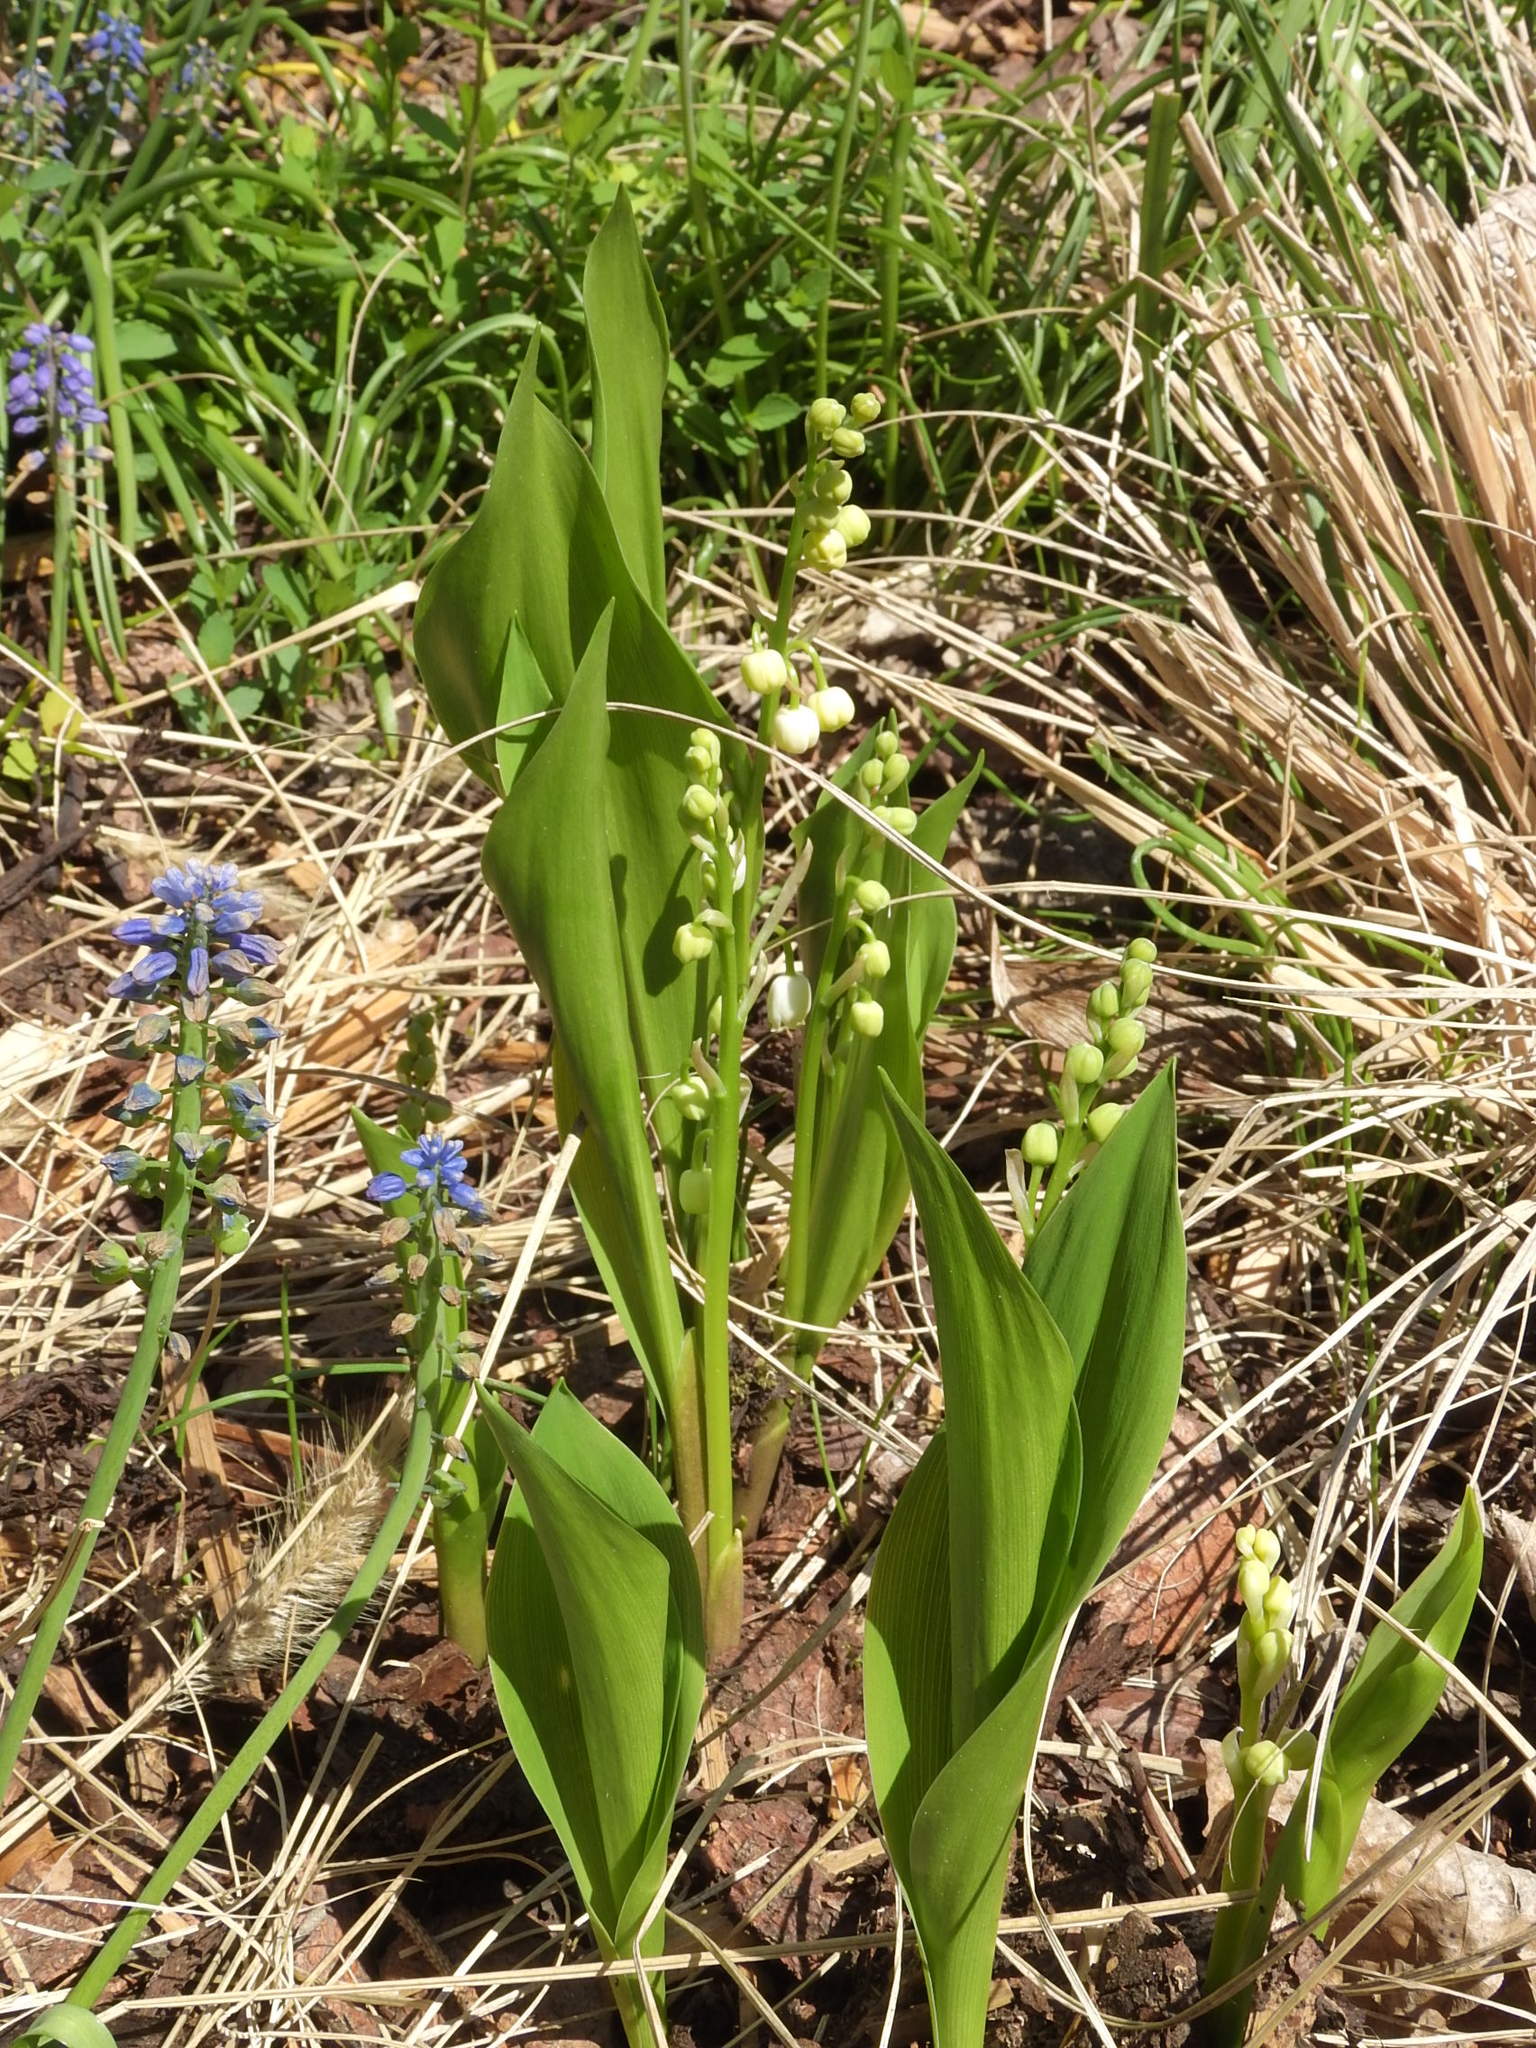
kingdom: Plantae
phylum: Tracheophyta
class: Liliopsida
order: Asparagales
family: Asparagaceae
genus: Convallaria
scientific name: Convallaria majalis
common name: Lily-of-the-valley
